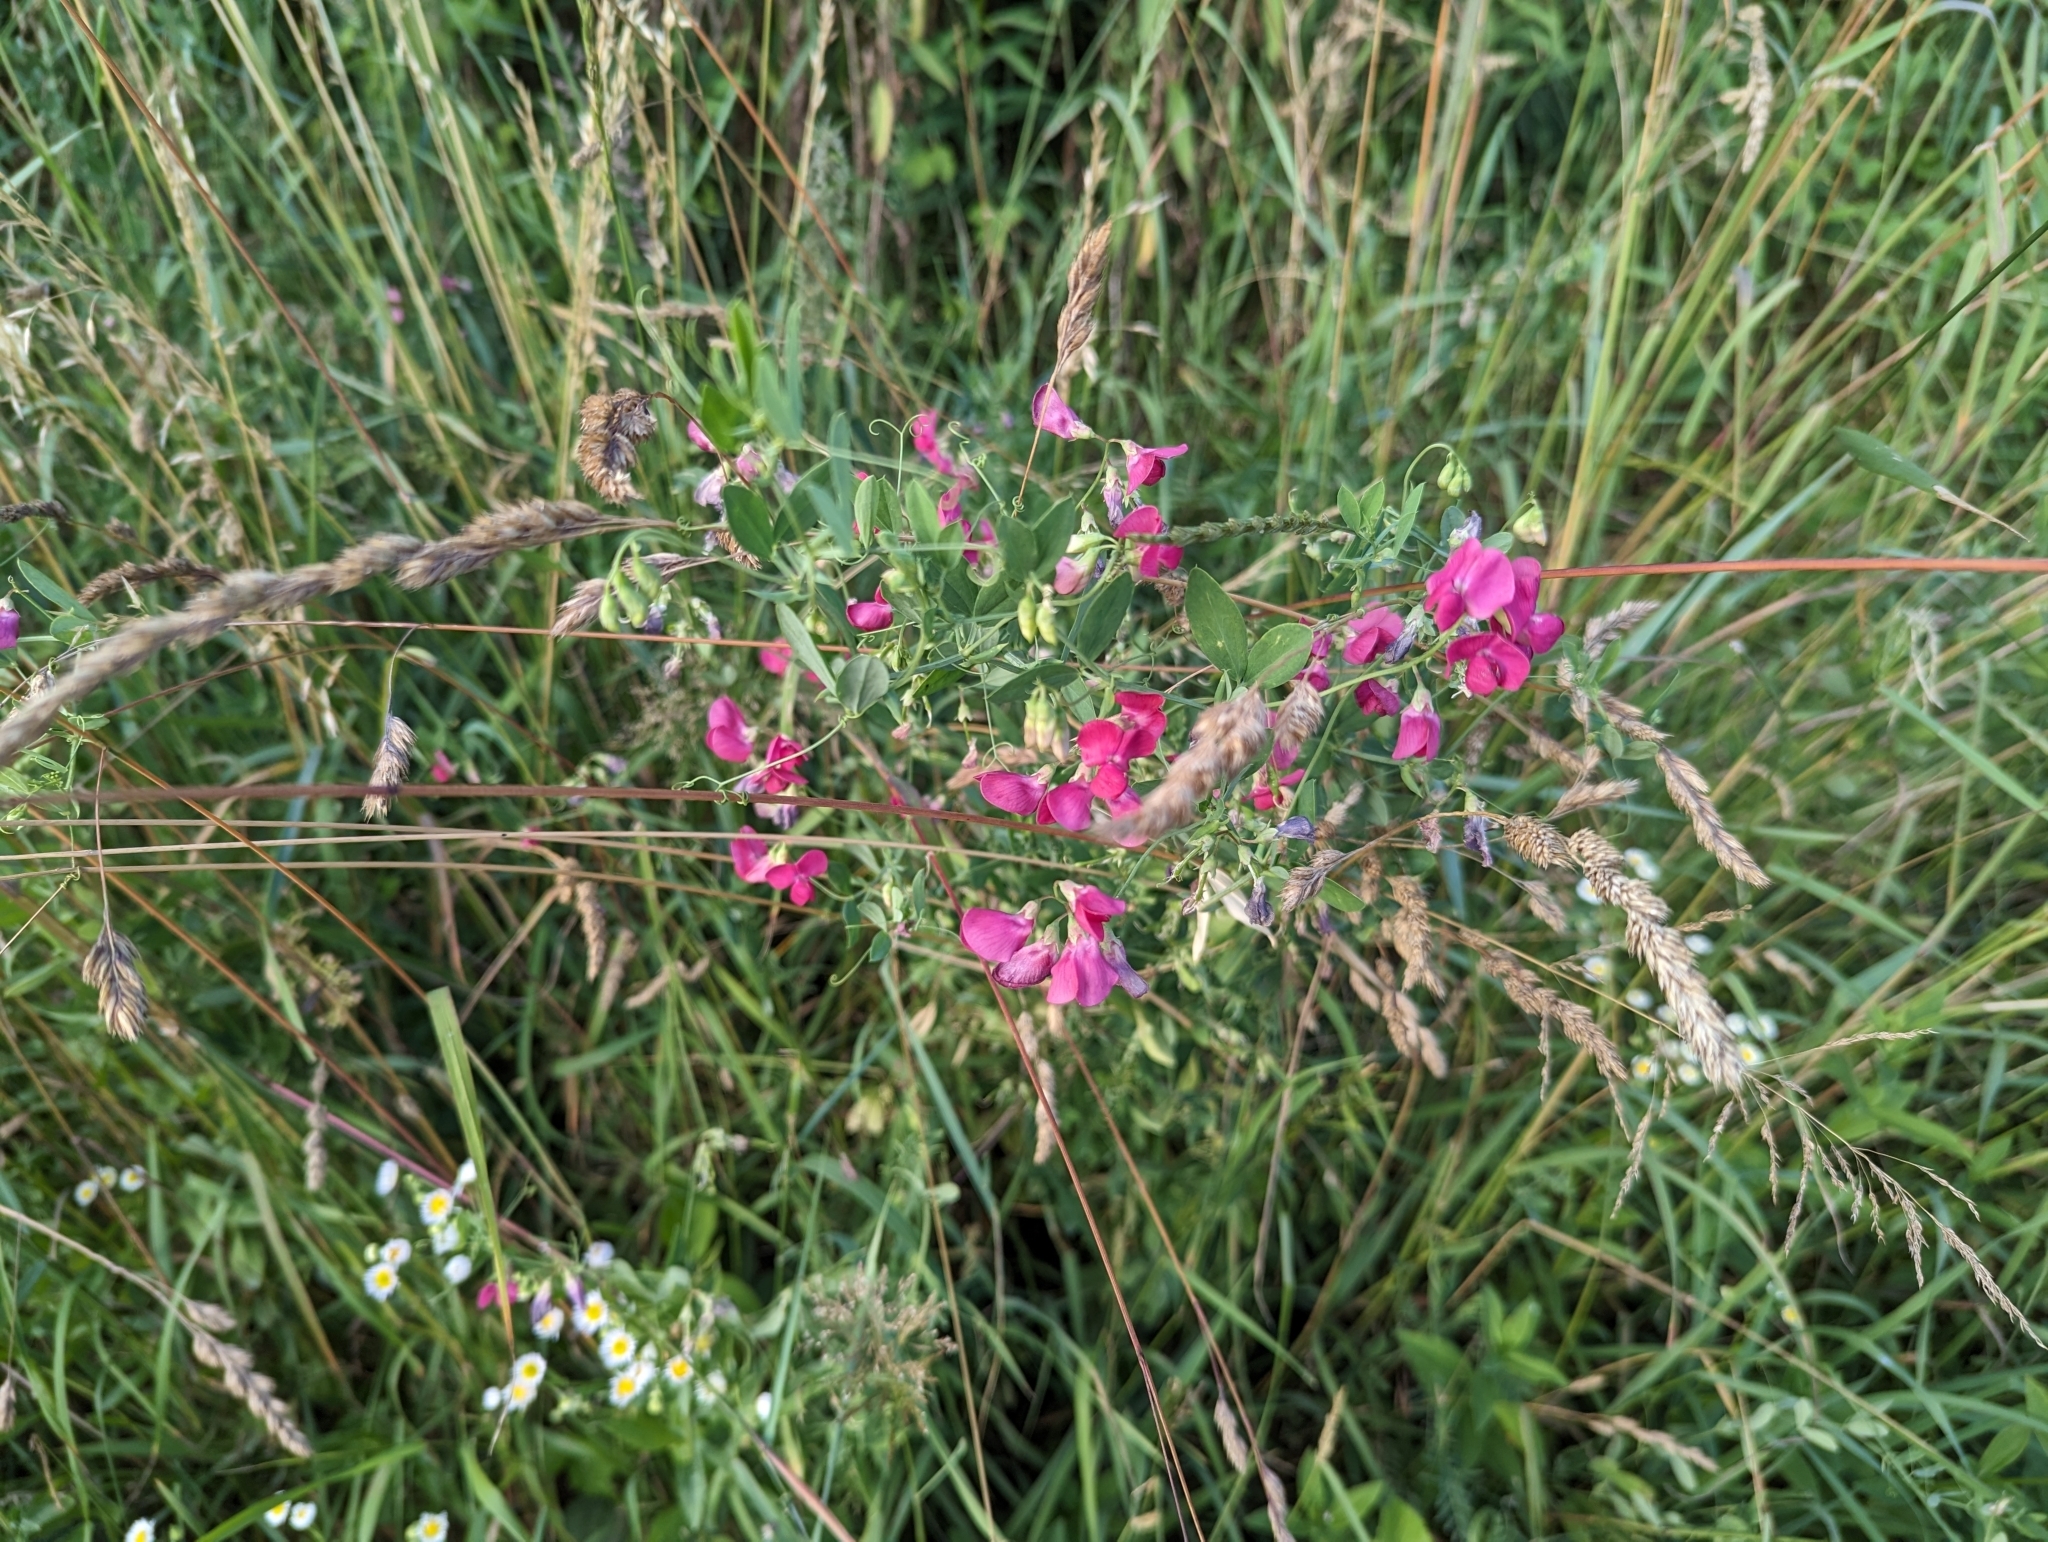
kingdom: Plantae
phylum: Tracheophyta
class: Magnoliopsida
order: Fabales
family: Fabaceae
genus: Lathyrus
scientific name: Lathyrus tuberosus
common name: Tuberous pea
